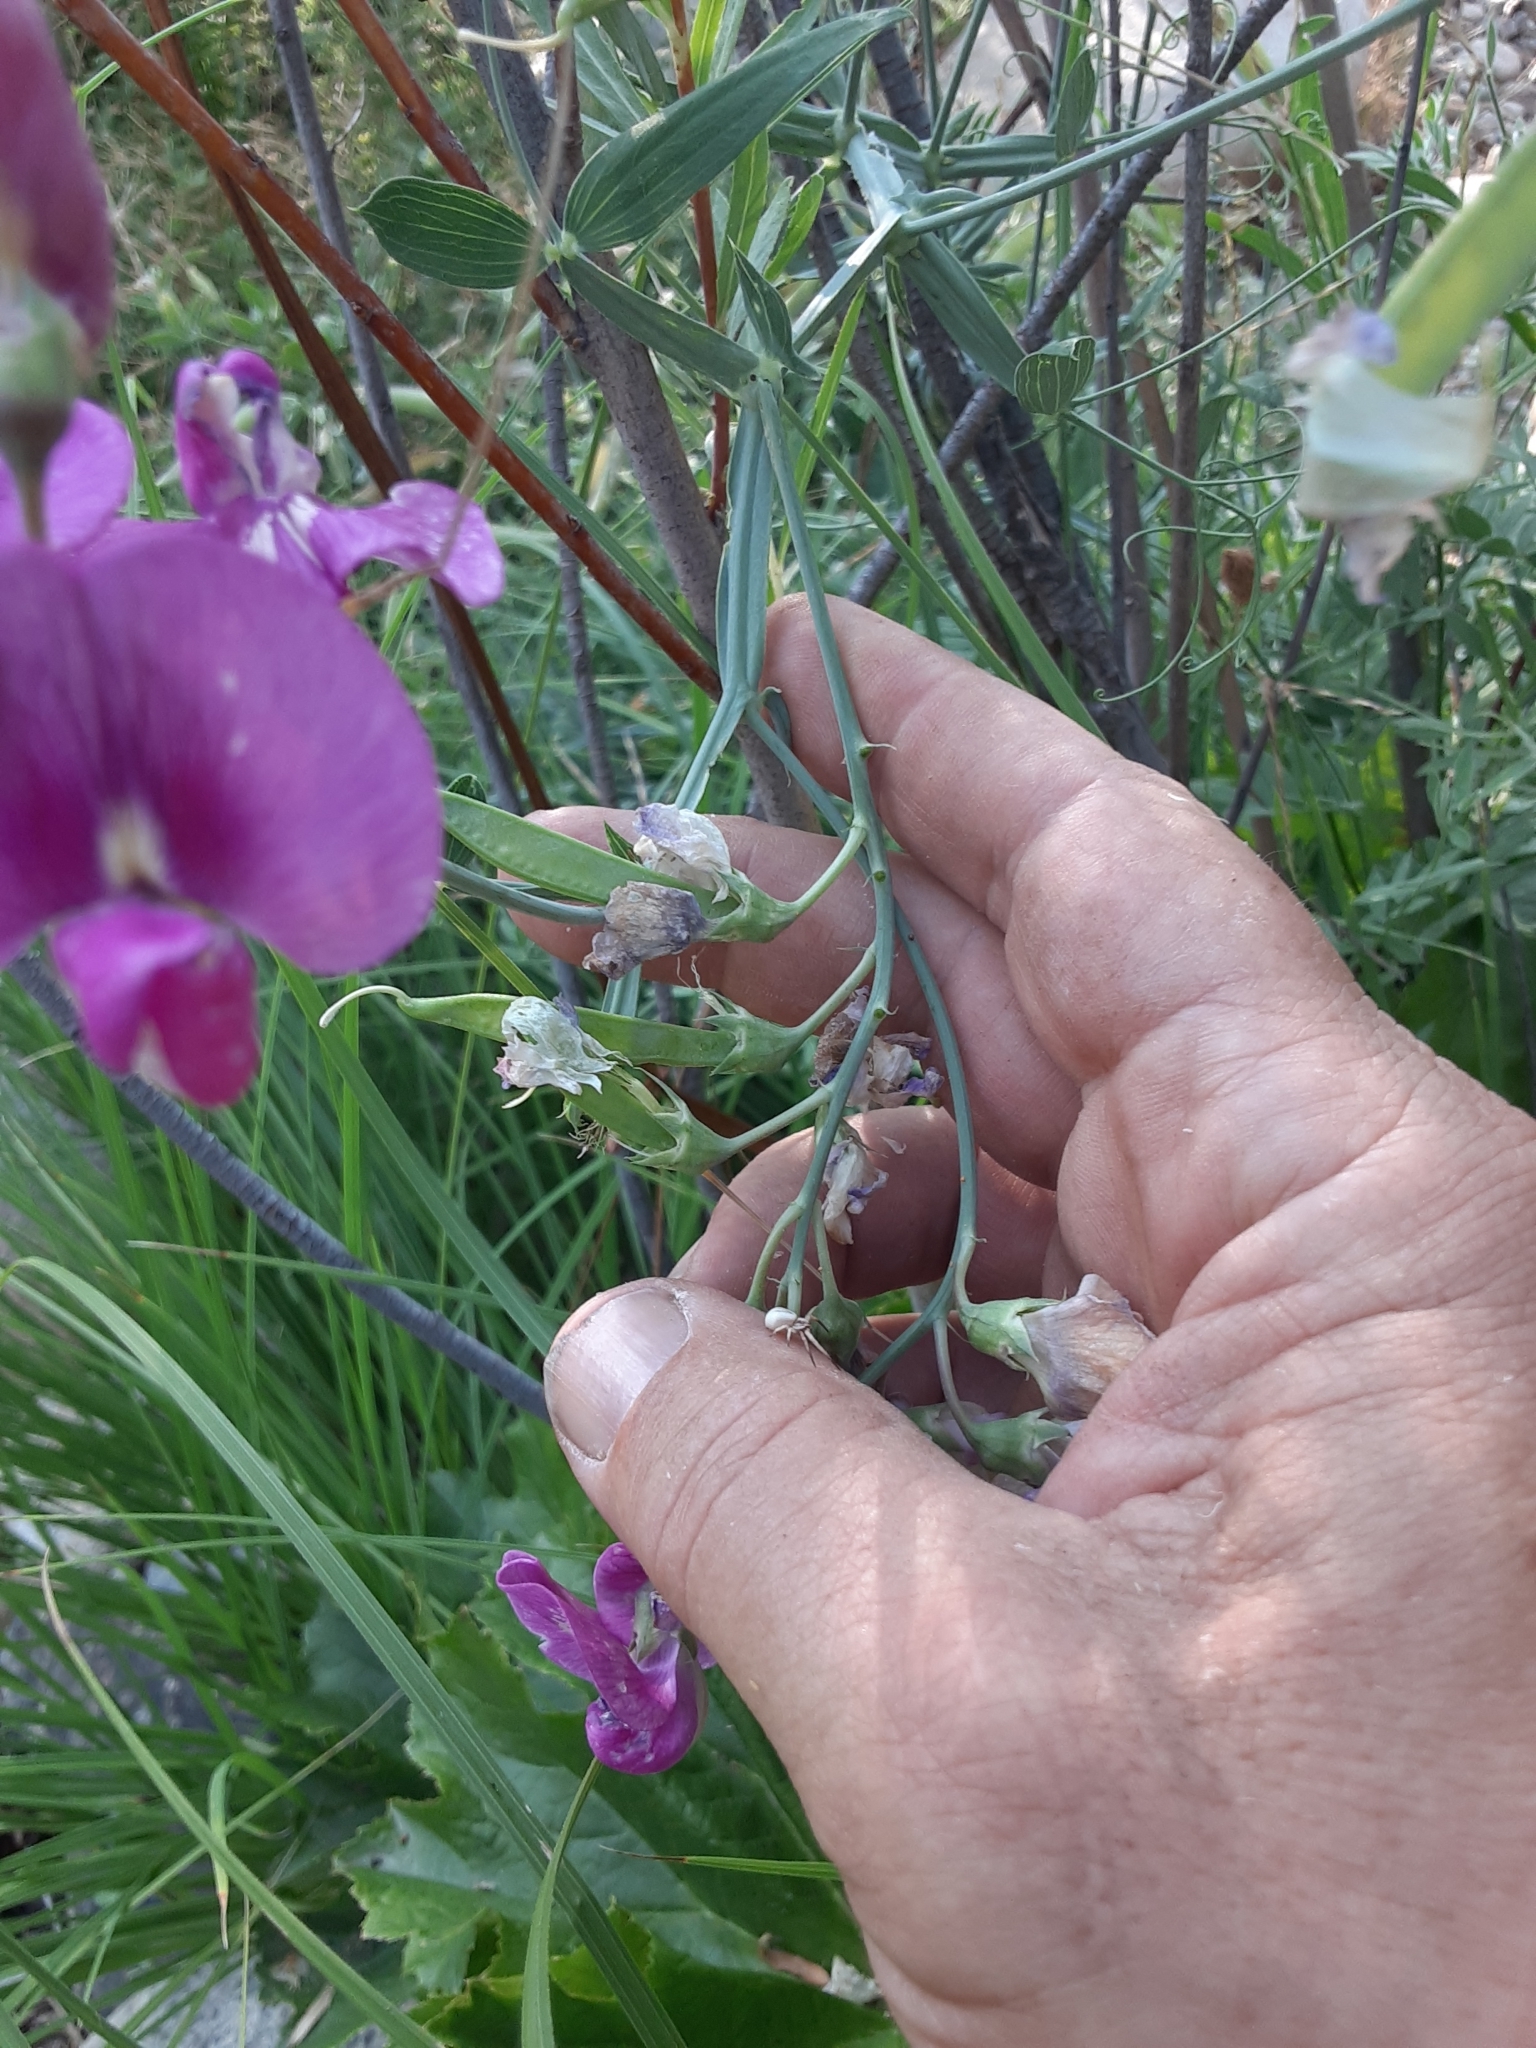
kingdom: Plantae
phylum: Tracheophyta
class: Magnoliopsida
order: Fabales
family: Fabaceae
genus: Lathyrus
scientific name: Lathyrus latifolius
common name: Perennial pea
